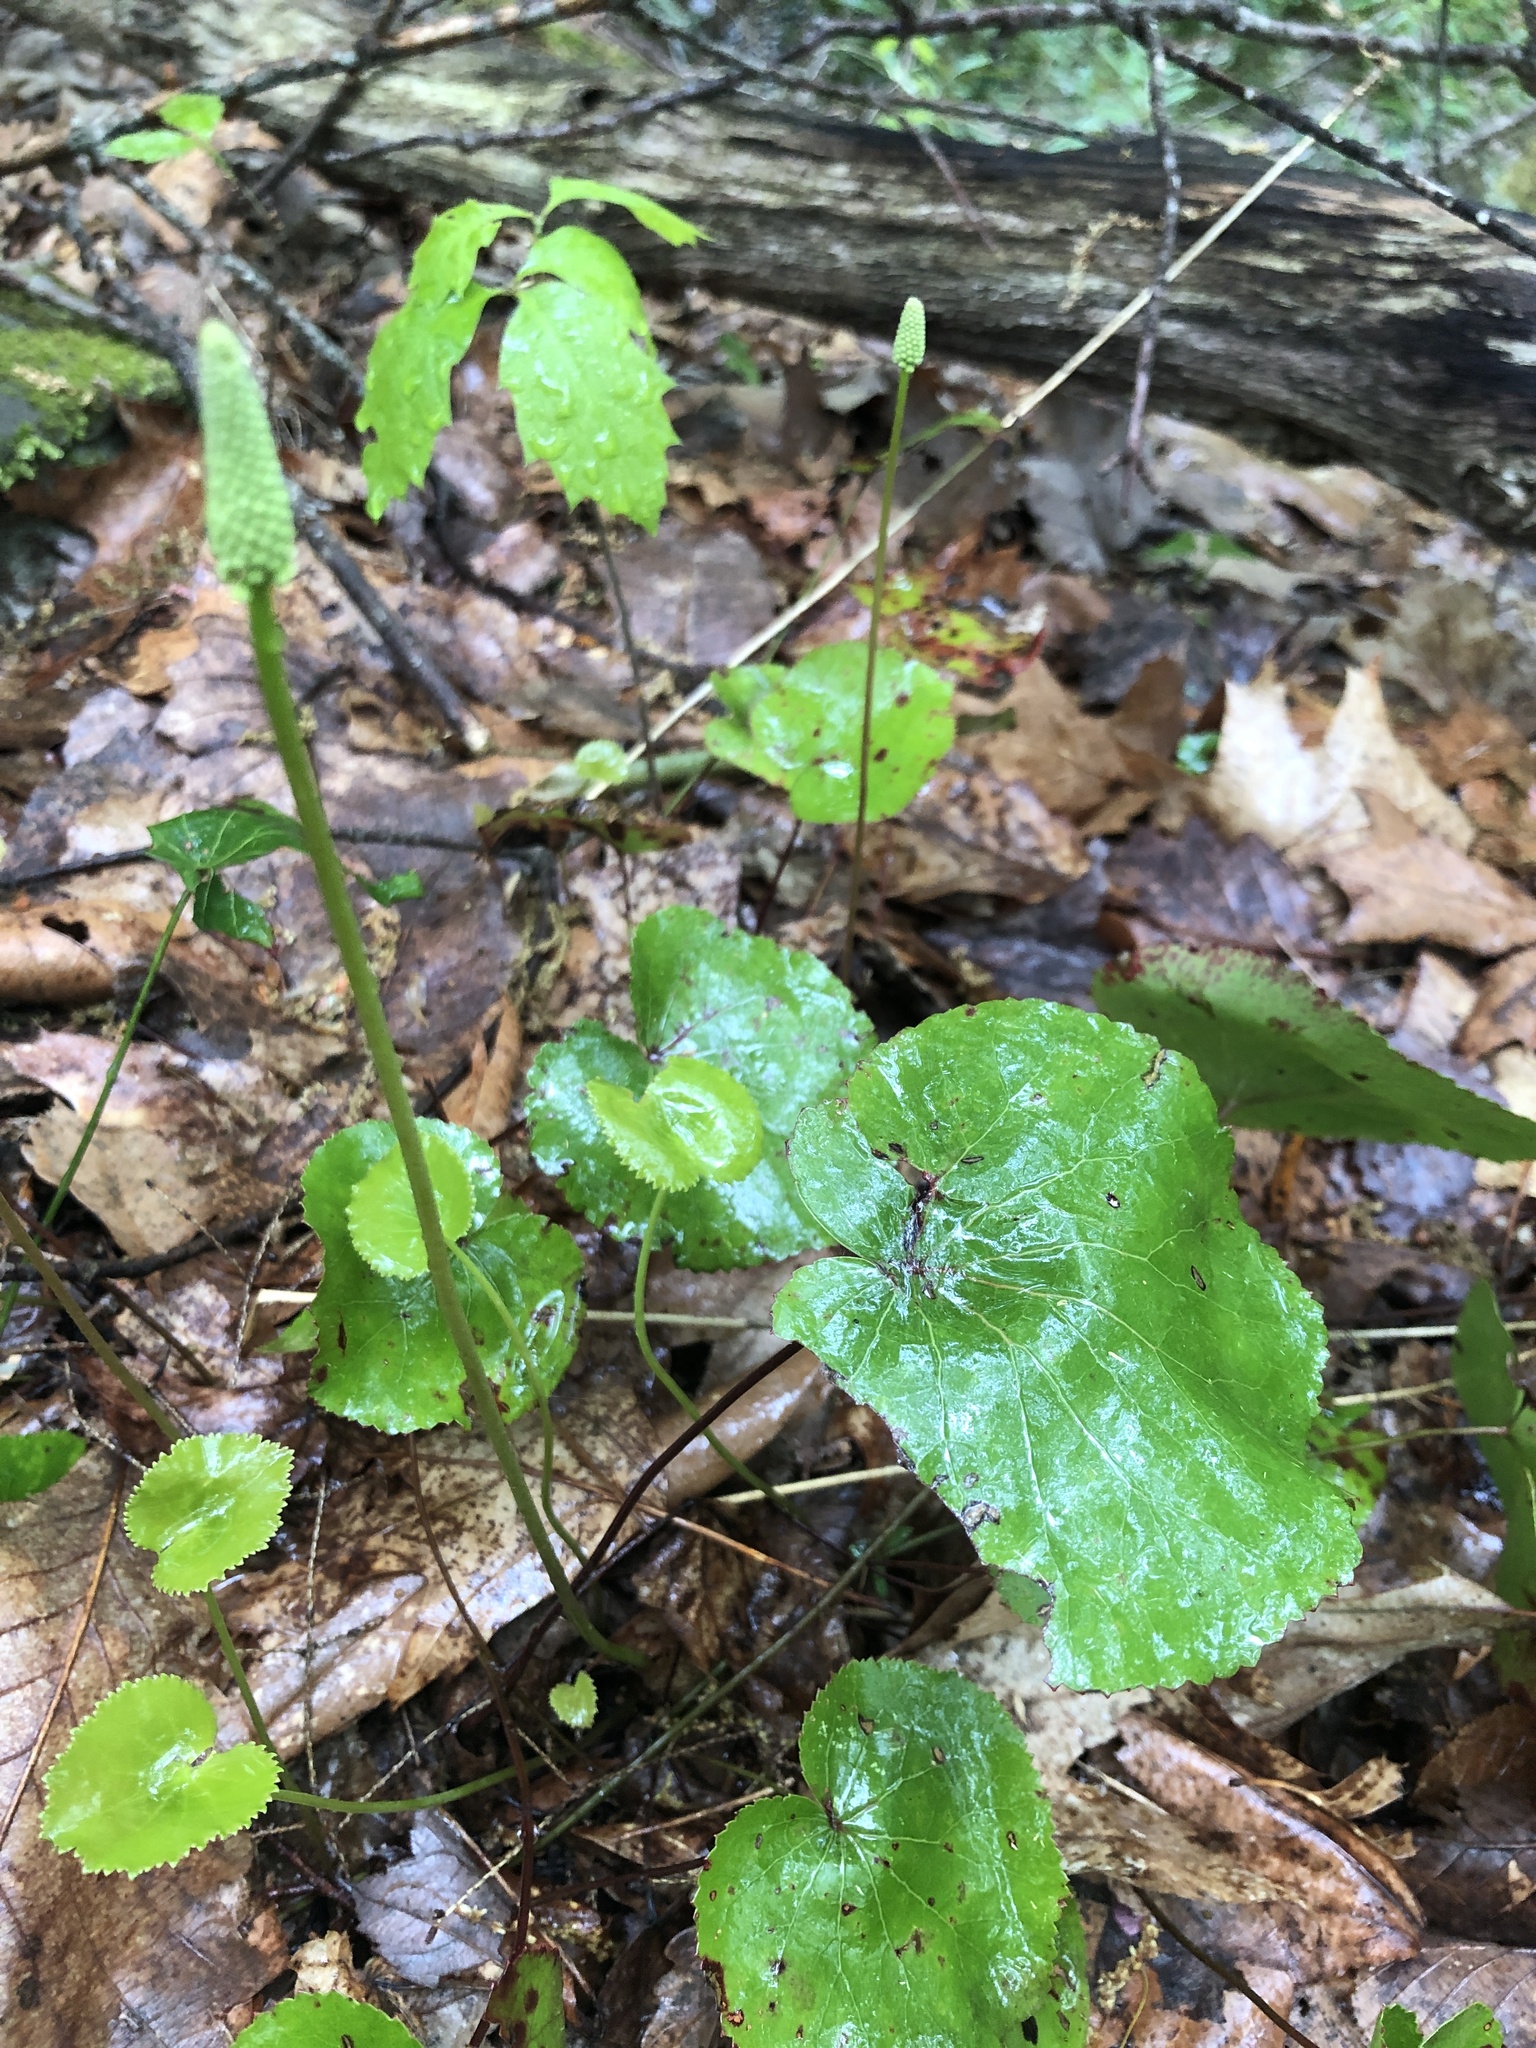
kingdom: Plantae
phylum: Tracheophyta
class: Magnoliopsida
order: Ericales
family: Diapensiaceae
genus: Galax
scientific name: Galax urceolata
